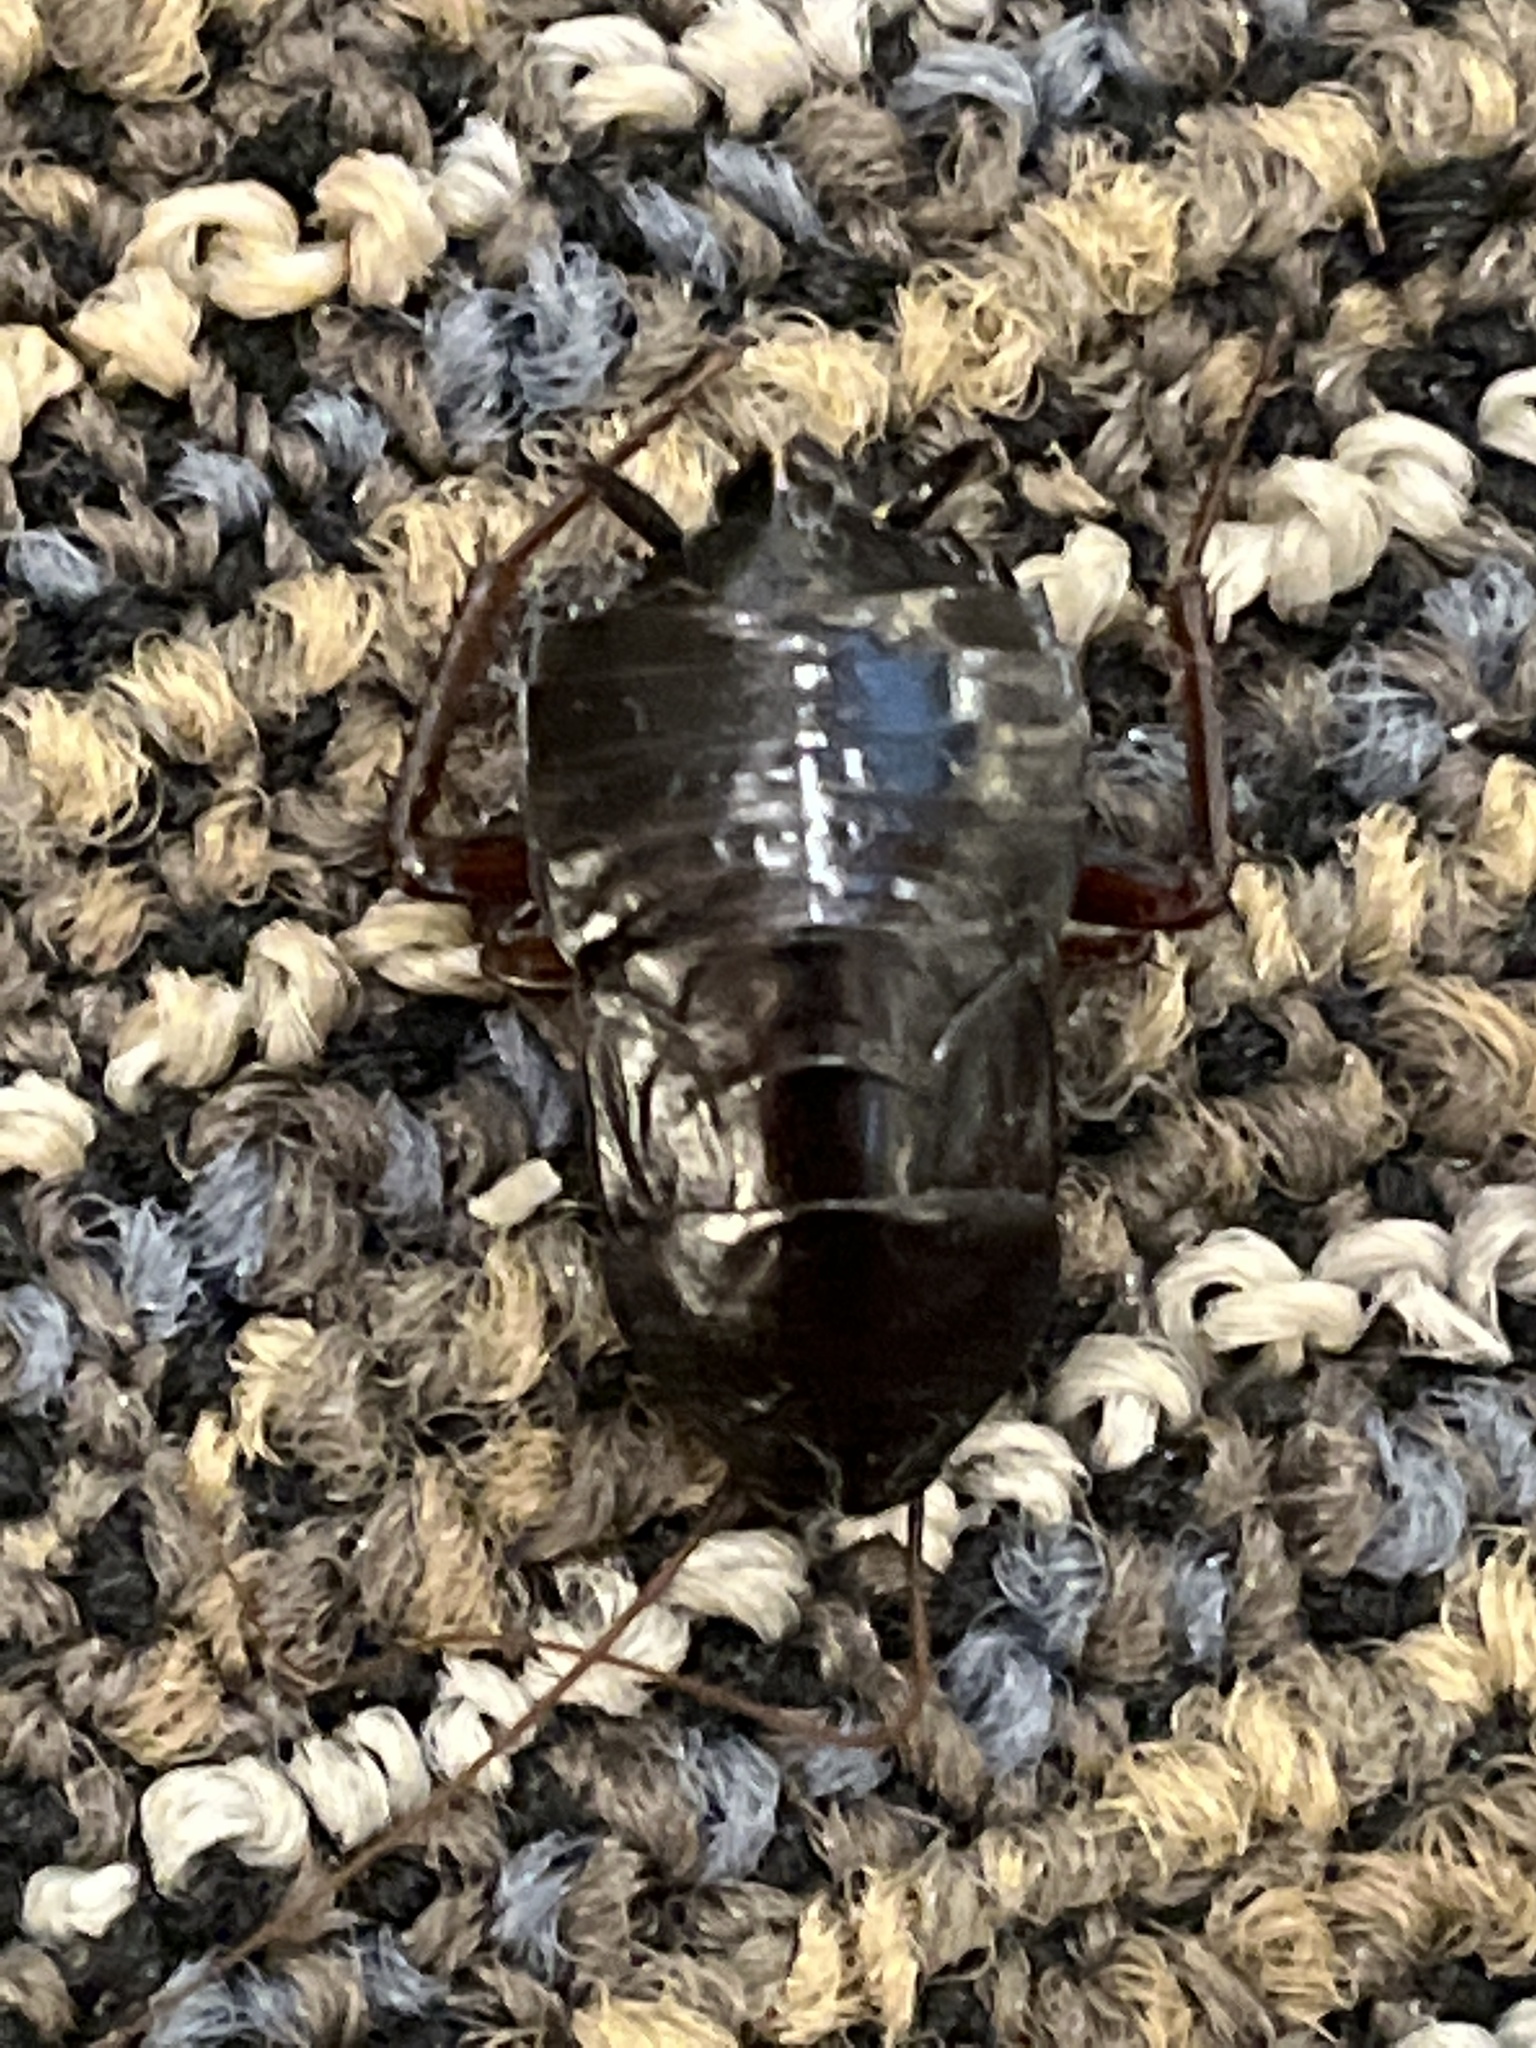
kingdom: Animalia
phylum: Arthropoda
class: Insecta
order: Blattodea
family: Blattidae
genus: Blatta
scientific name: Blatta orientalis
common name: Oriental cockroach
